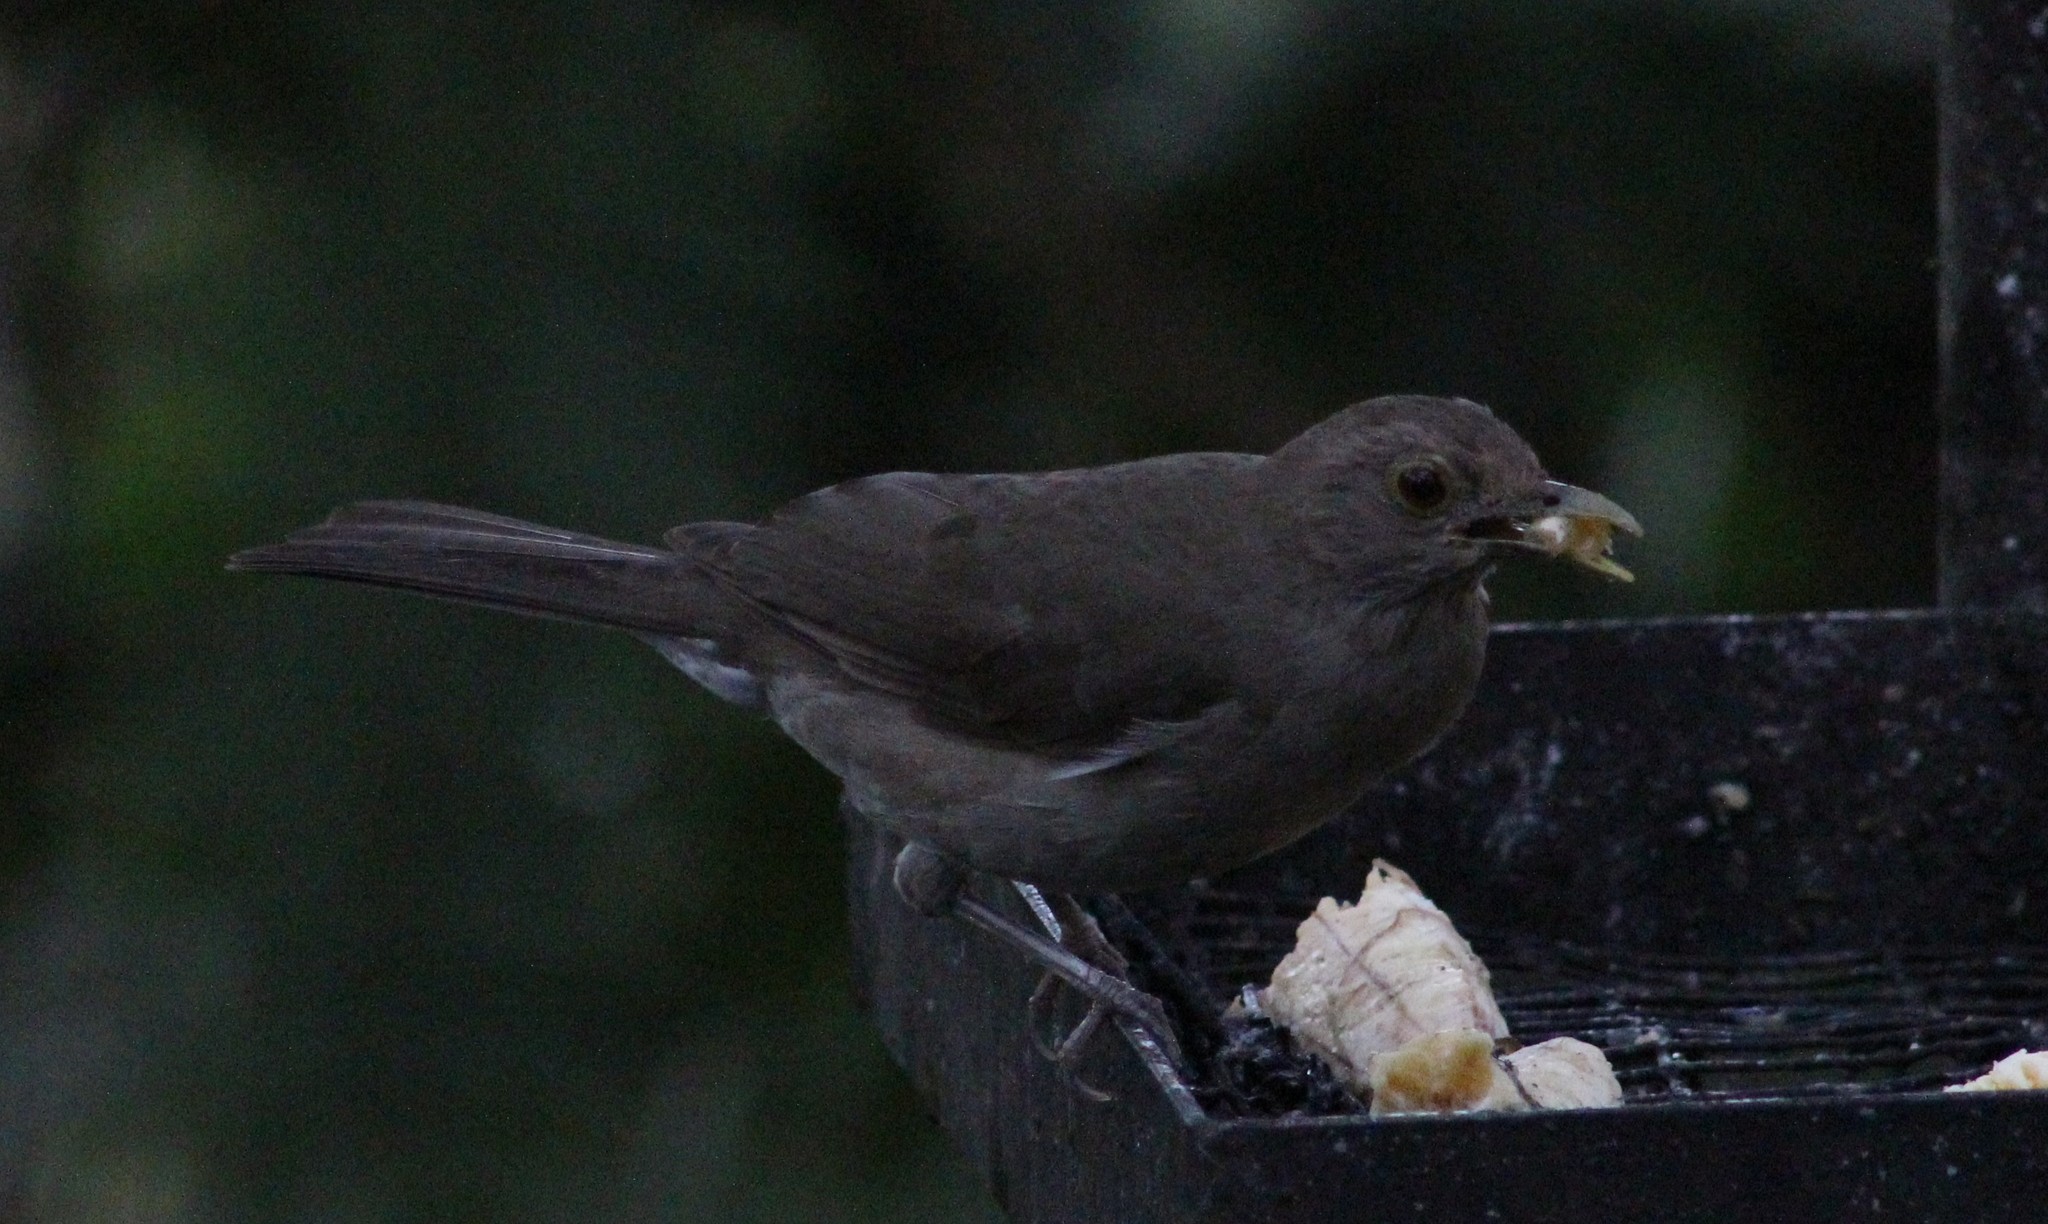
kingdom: Animalia
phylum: Chordata
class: Aves
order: Passeriformes
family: Turdidae
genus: Turdus
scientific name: Turdus maculirostris
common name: Ecuadorian thrush
